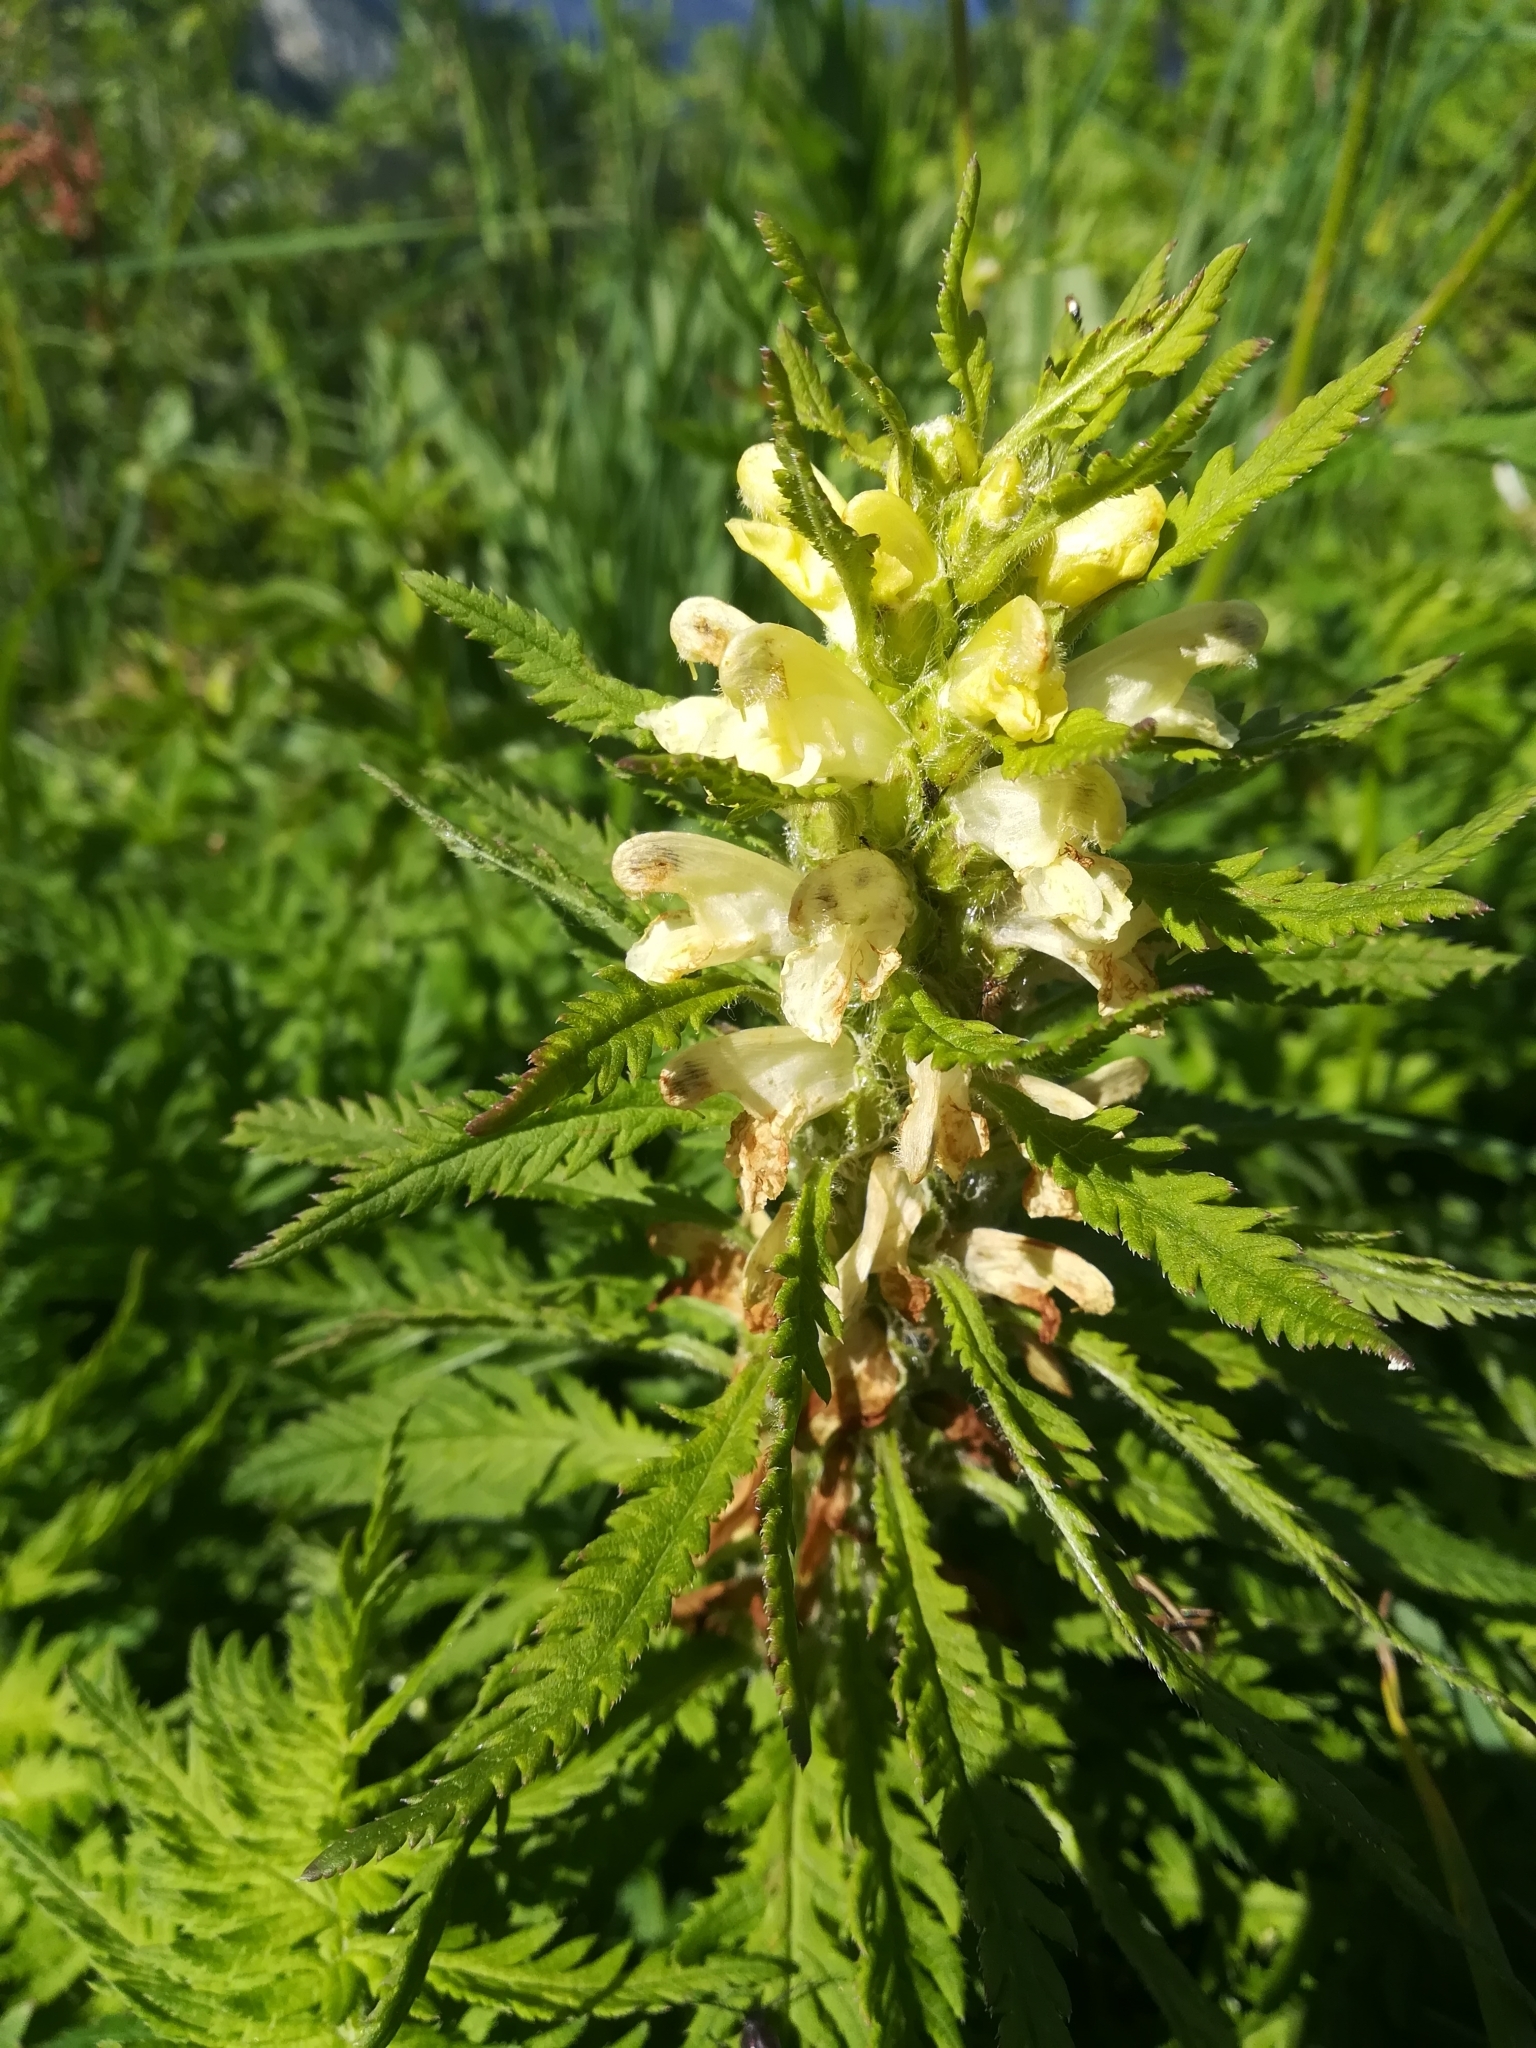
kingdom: Plantae
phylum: Tracheophyta
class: Magnoliopsida
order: Lamiales
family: Orobanchaceae
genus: Pedicularis
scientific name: Pedicularis foliosa
